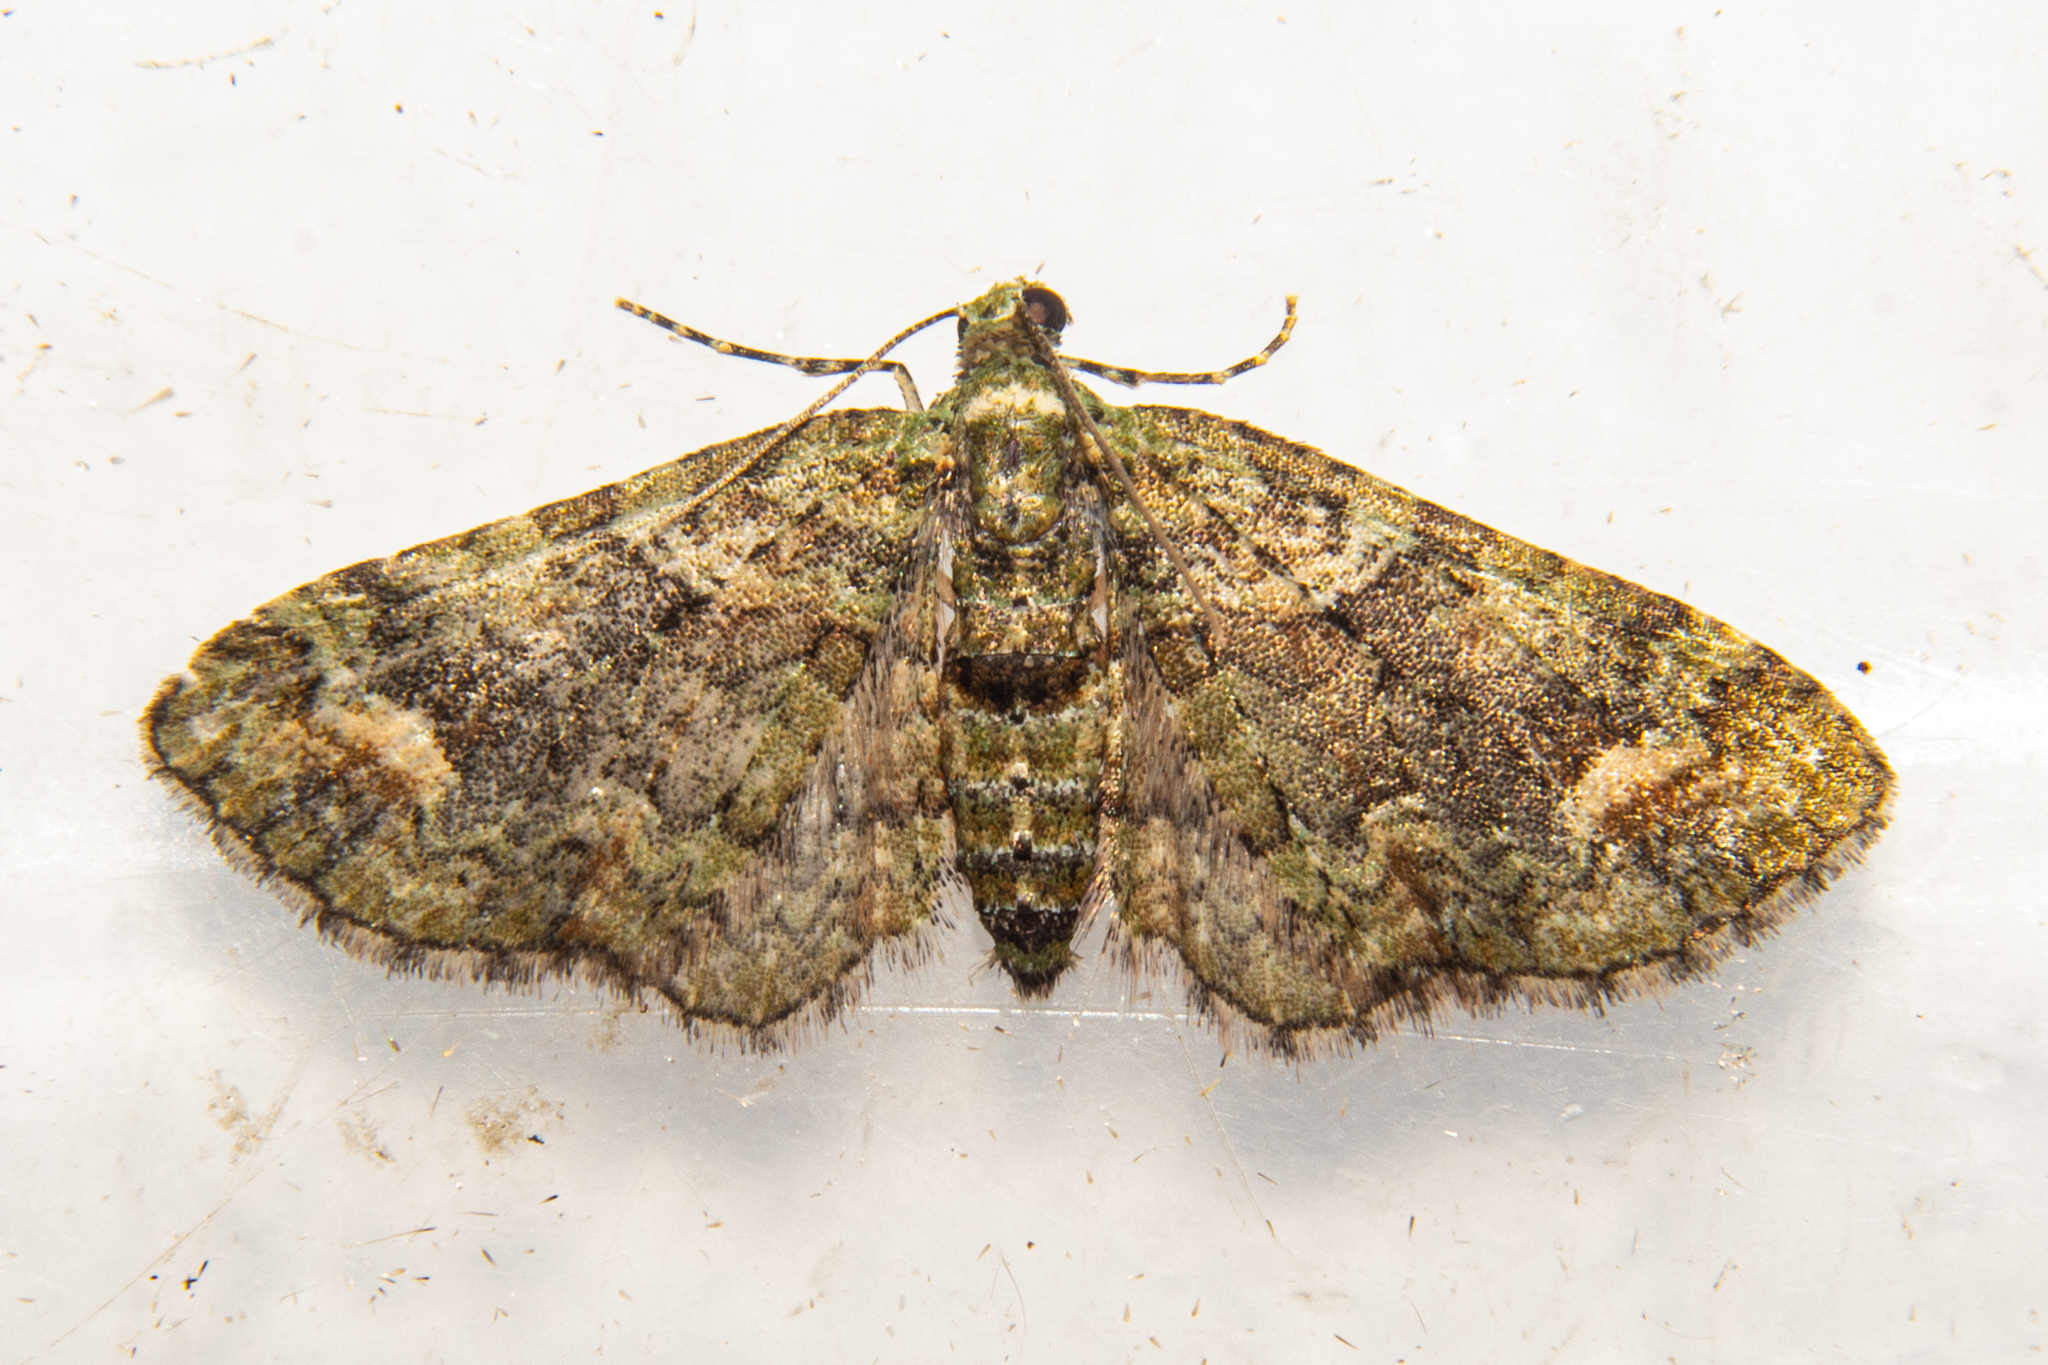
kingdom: Animalia
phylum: Arthropoda
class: Insecta
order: Lepidoptera
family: Geometridae
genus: Idaea
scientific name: Idaea mutanda
